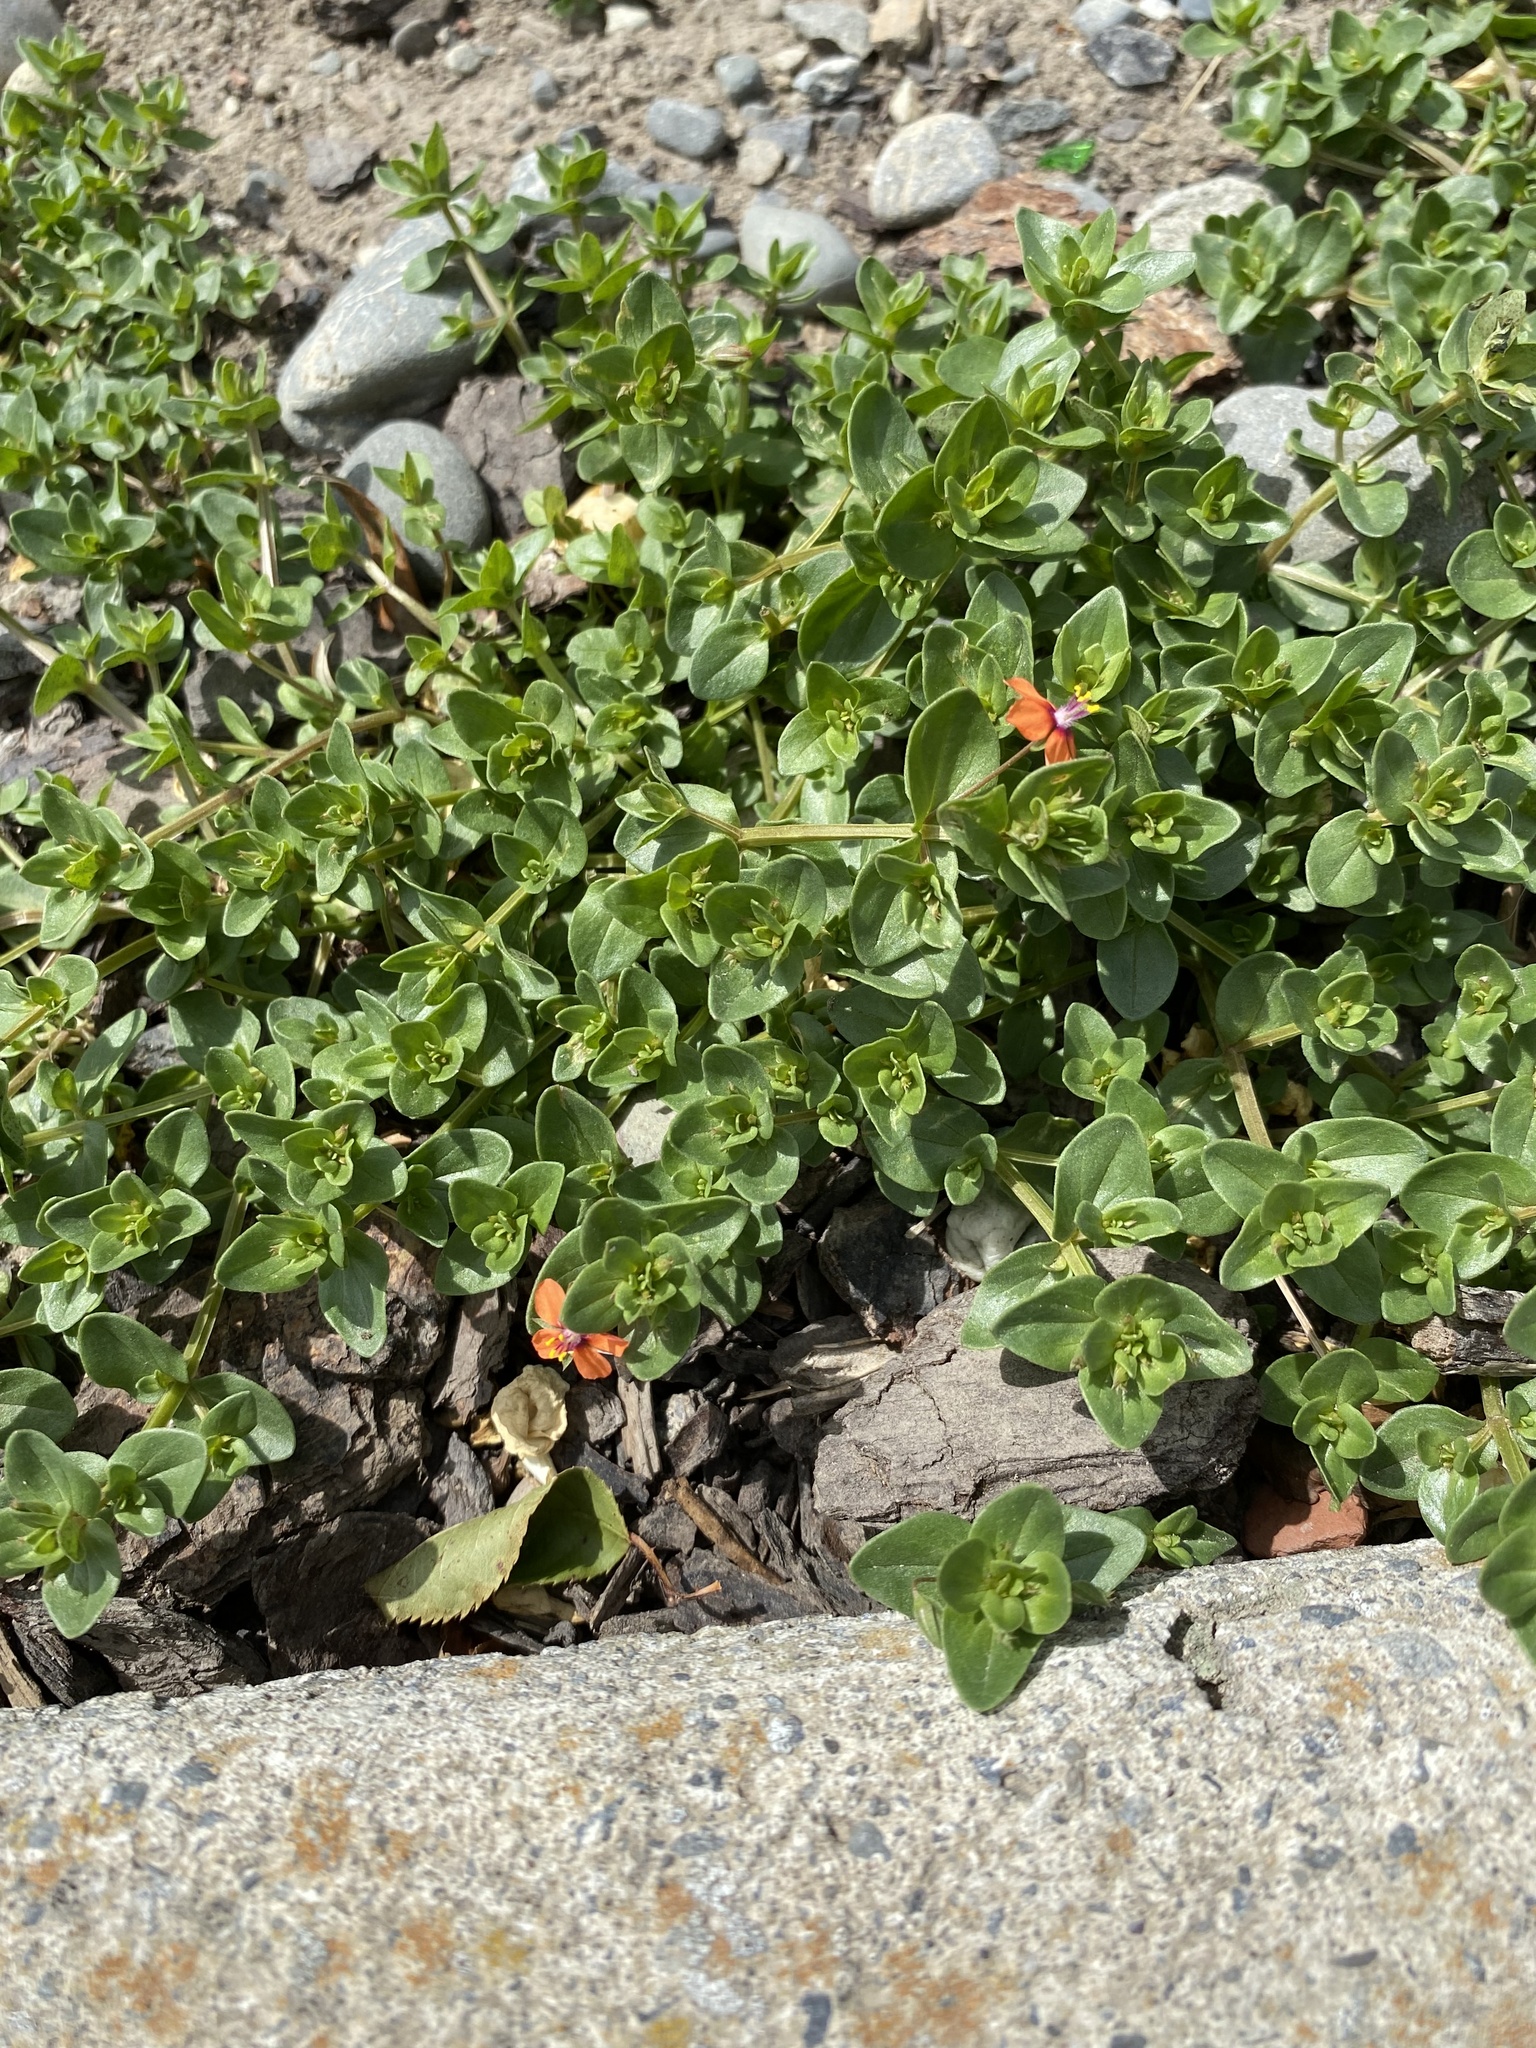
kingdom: Plantae
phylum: Tracheophyta
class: Magnoliopsida
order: Ericales
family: Primulaceae
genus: Lysimachia
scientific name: Lysimachia arvensis
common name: Scarlet pimpernel
